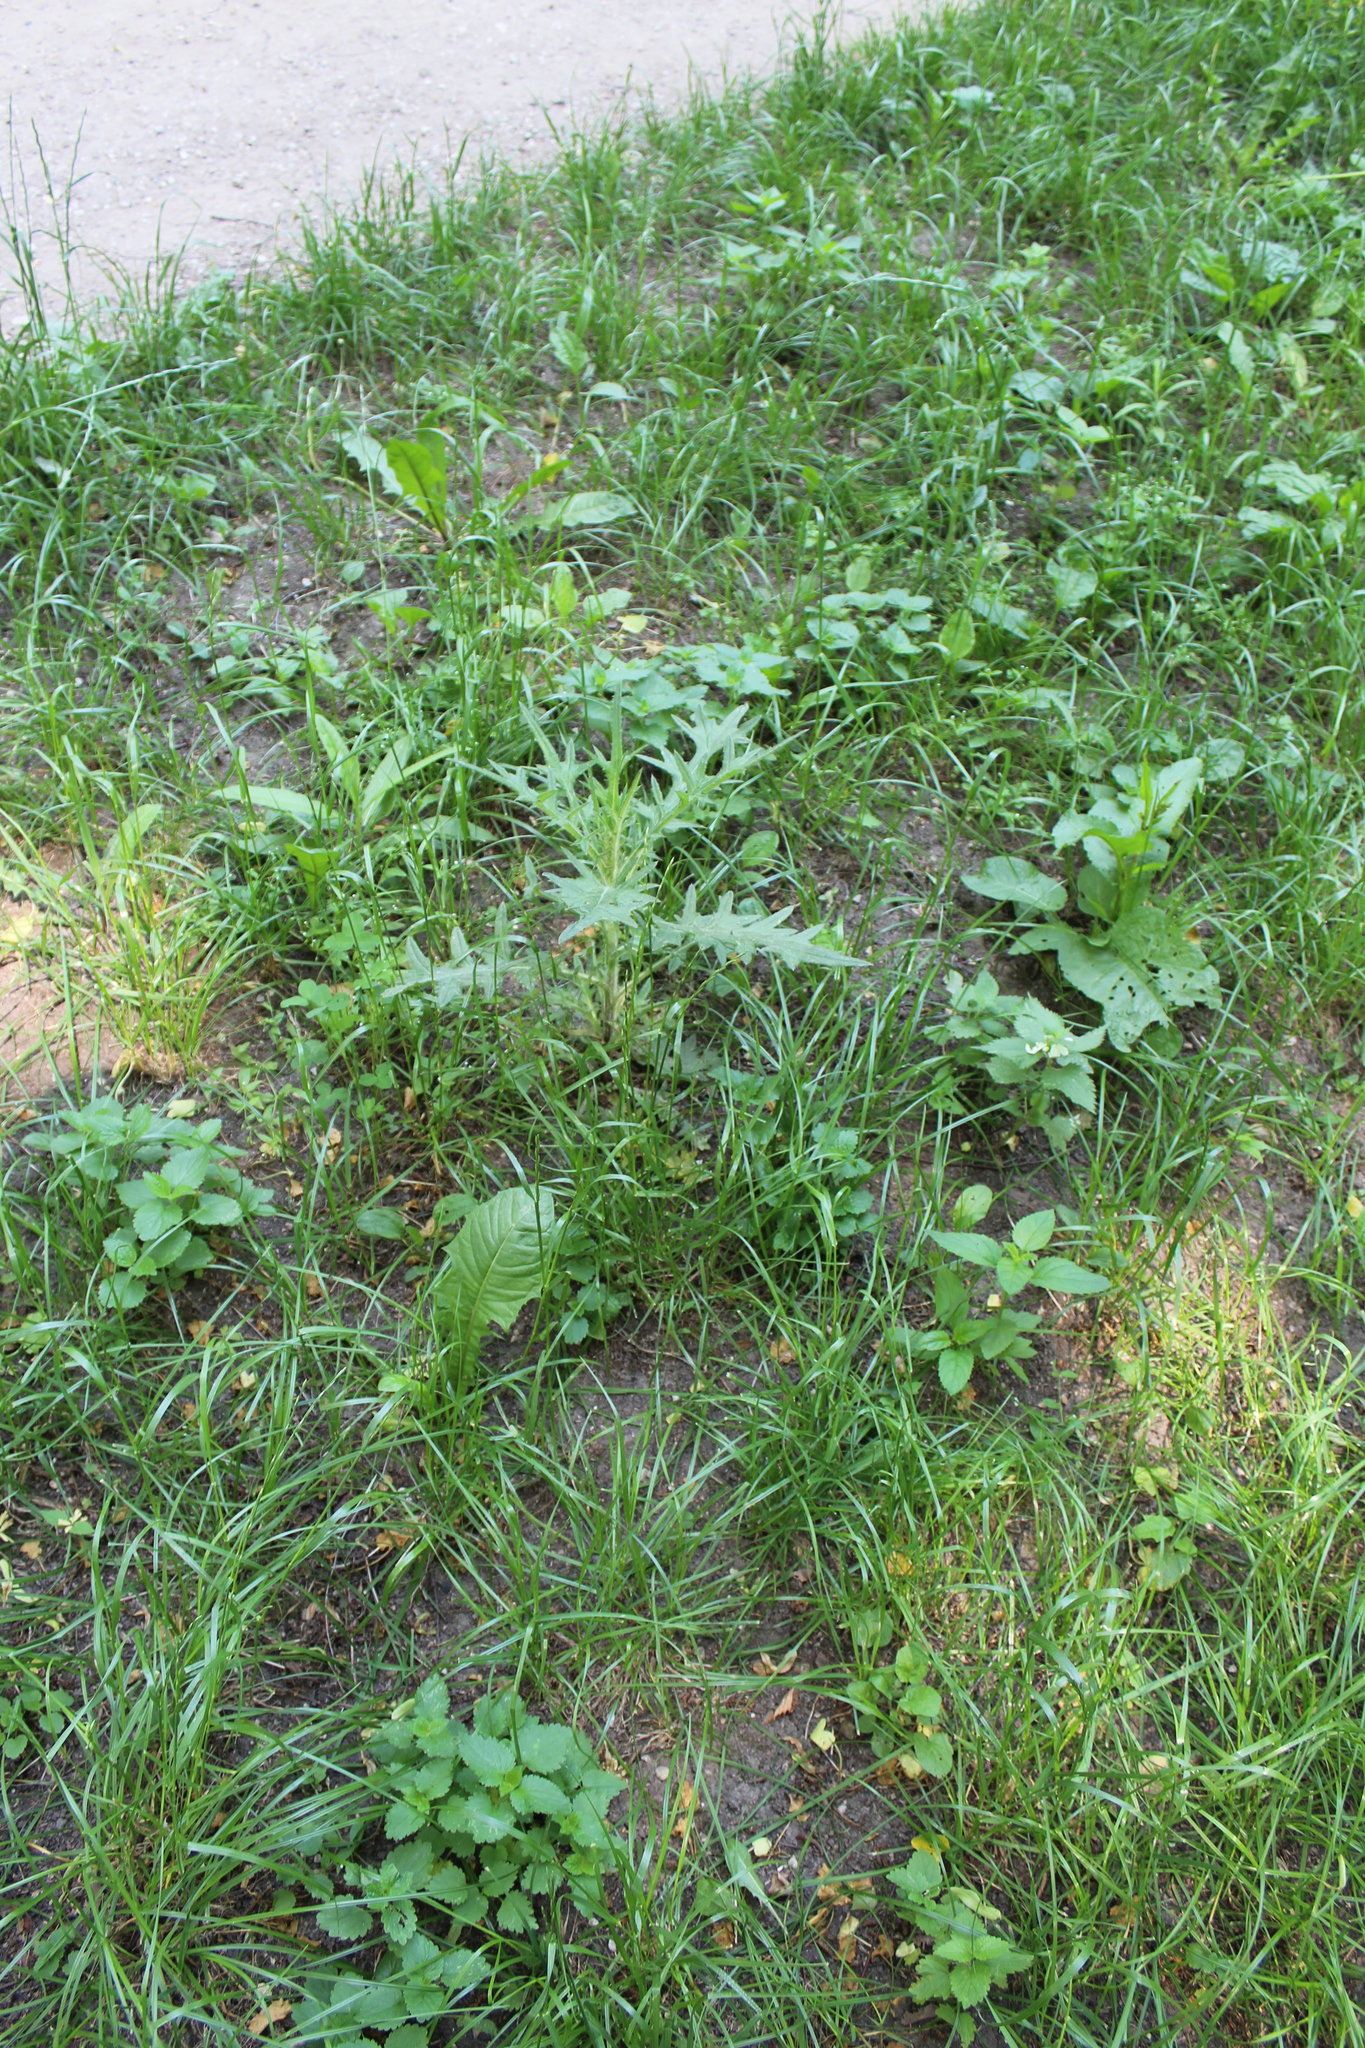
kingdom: Plantae
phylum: Tracheophyta
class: Magnoliopsida
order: Asterales
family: Asteraceae
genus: Cirsium
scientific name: Cirsium vulgare
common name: Bull thistle
